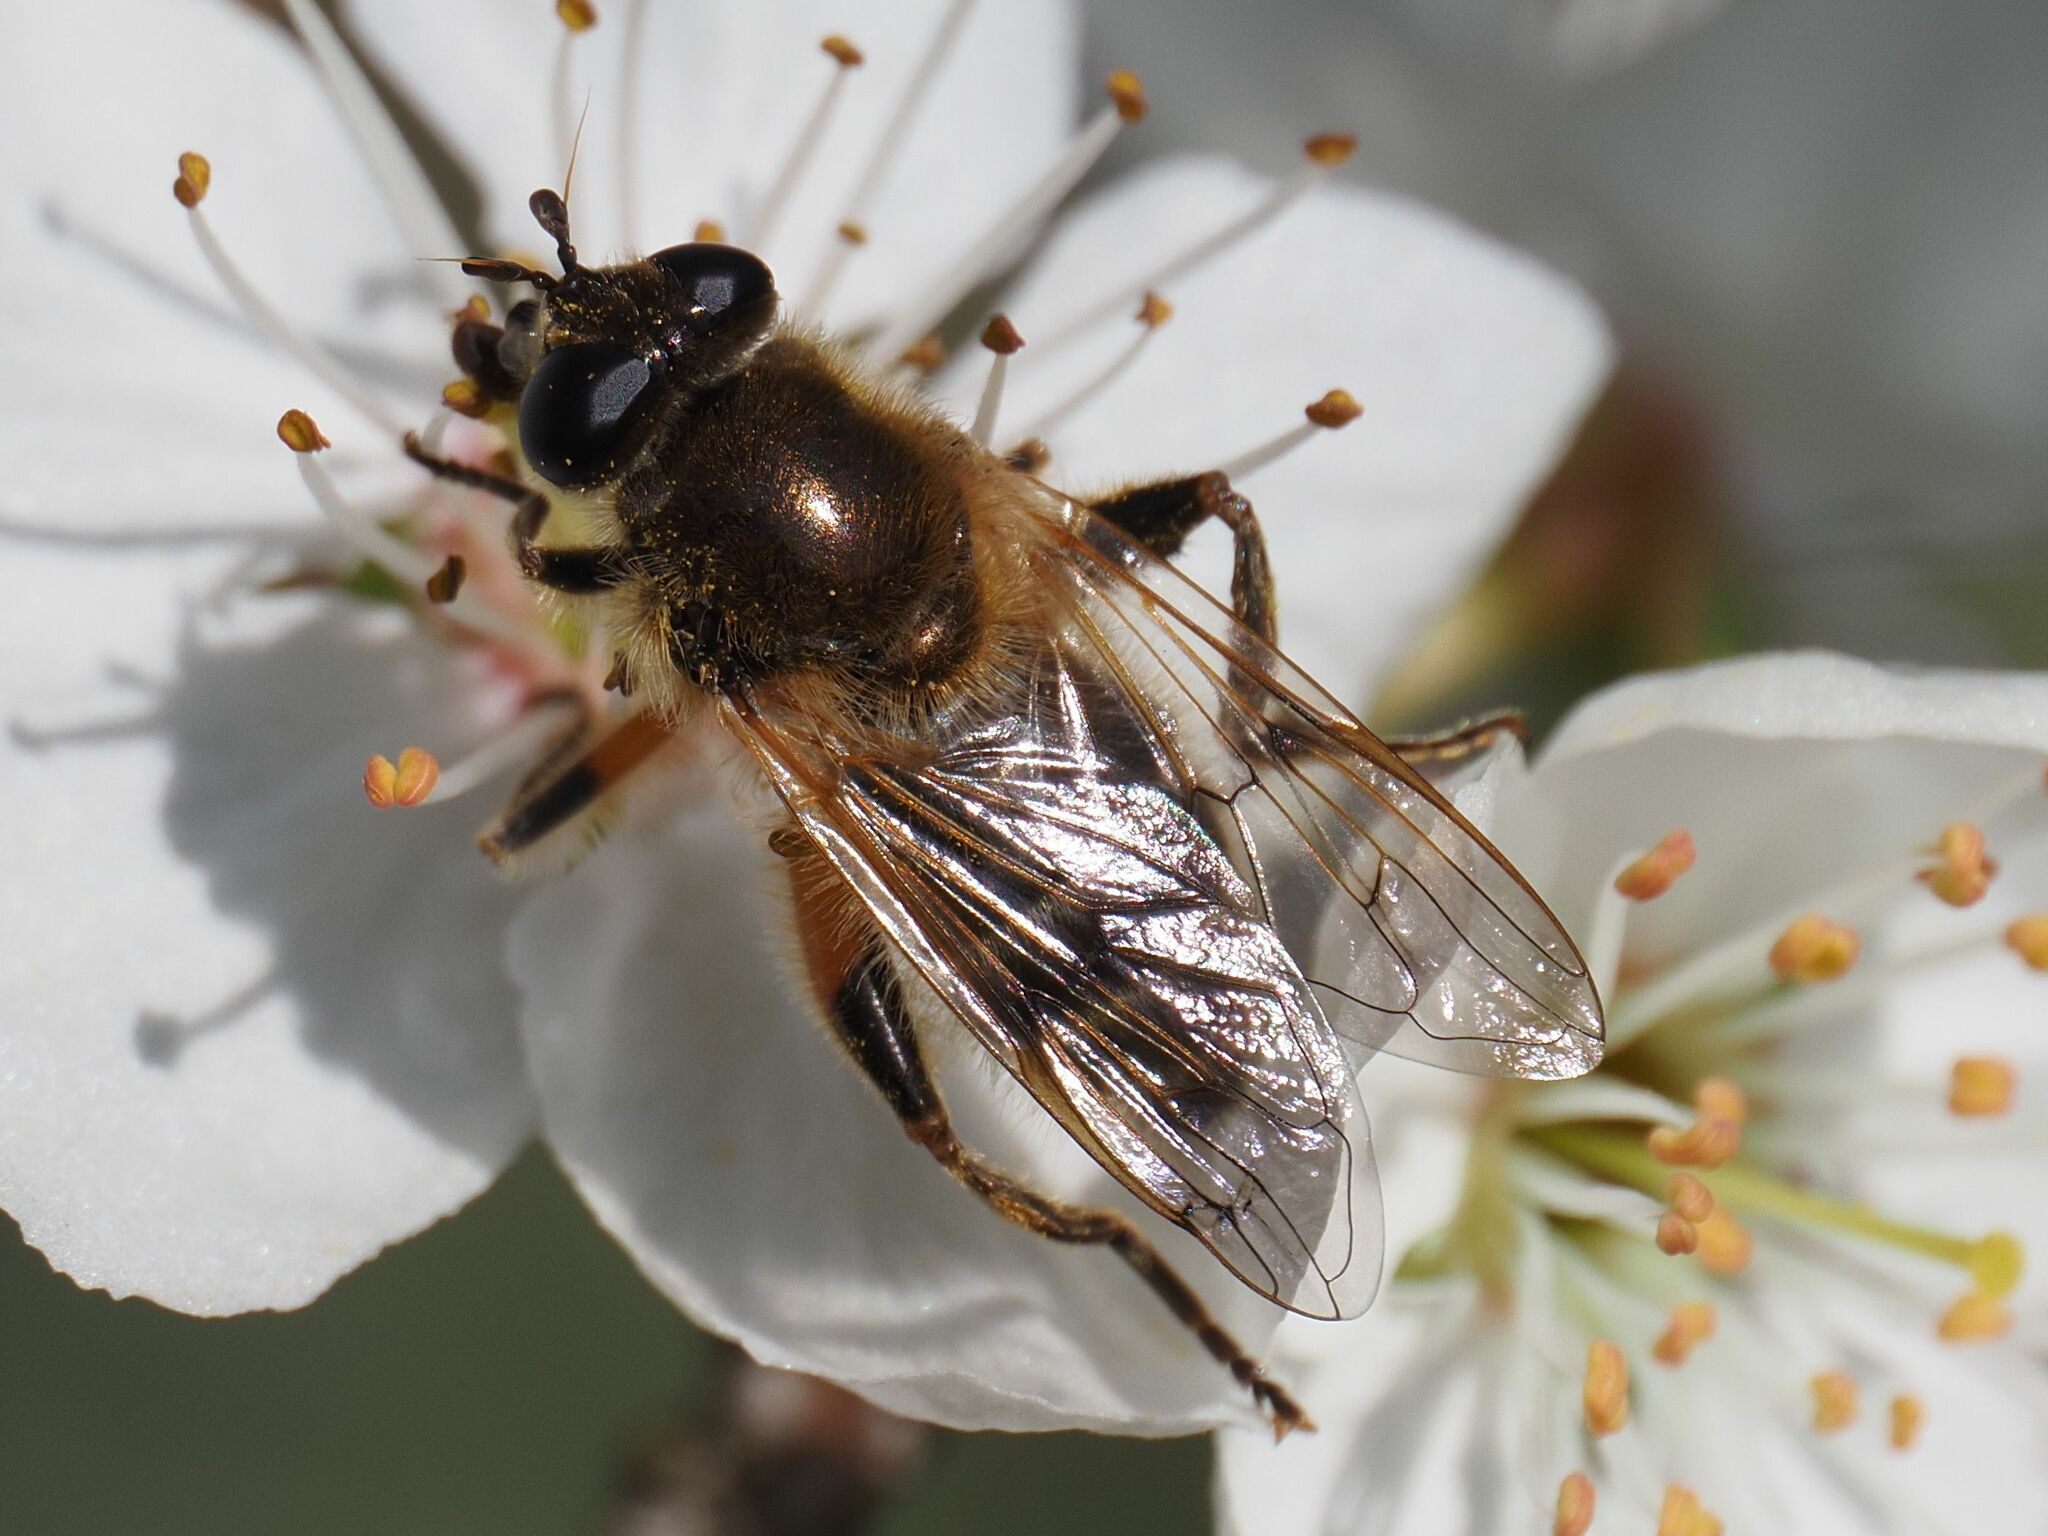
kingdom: Animalia
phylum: Arthropoda
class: Insecta
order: Diptera
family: Syrphidae
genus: Brachypalpus
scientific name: Brachypalpus valgus
